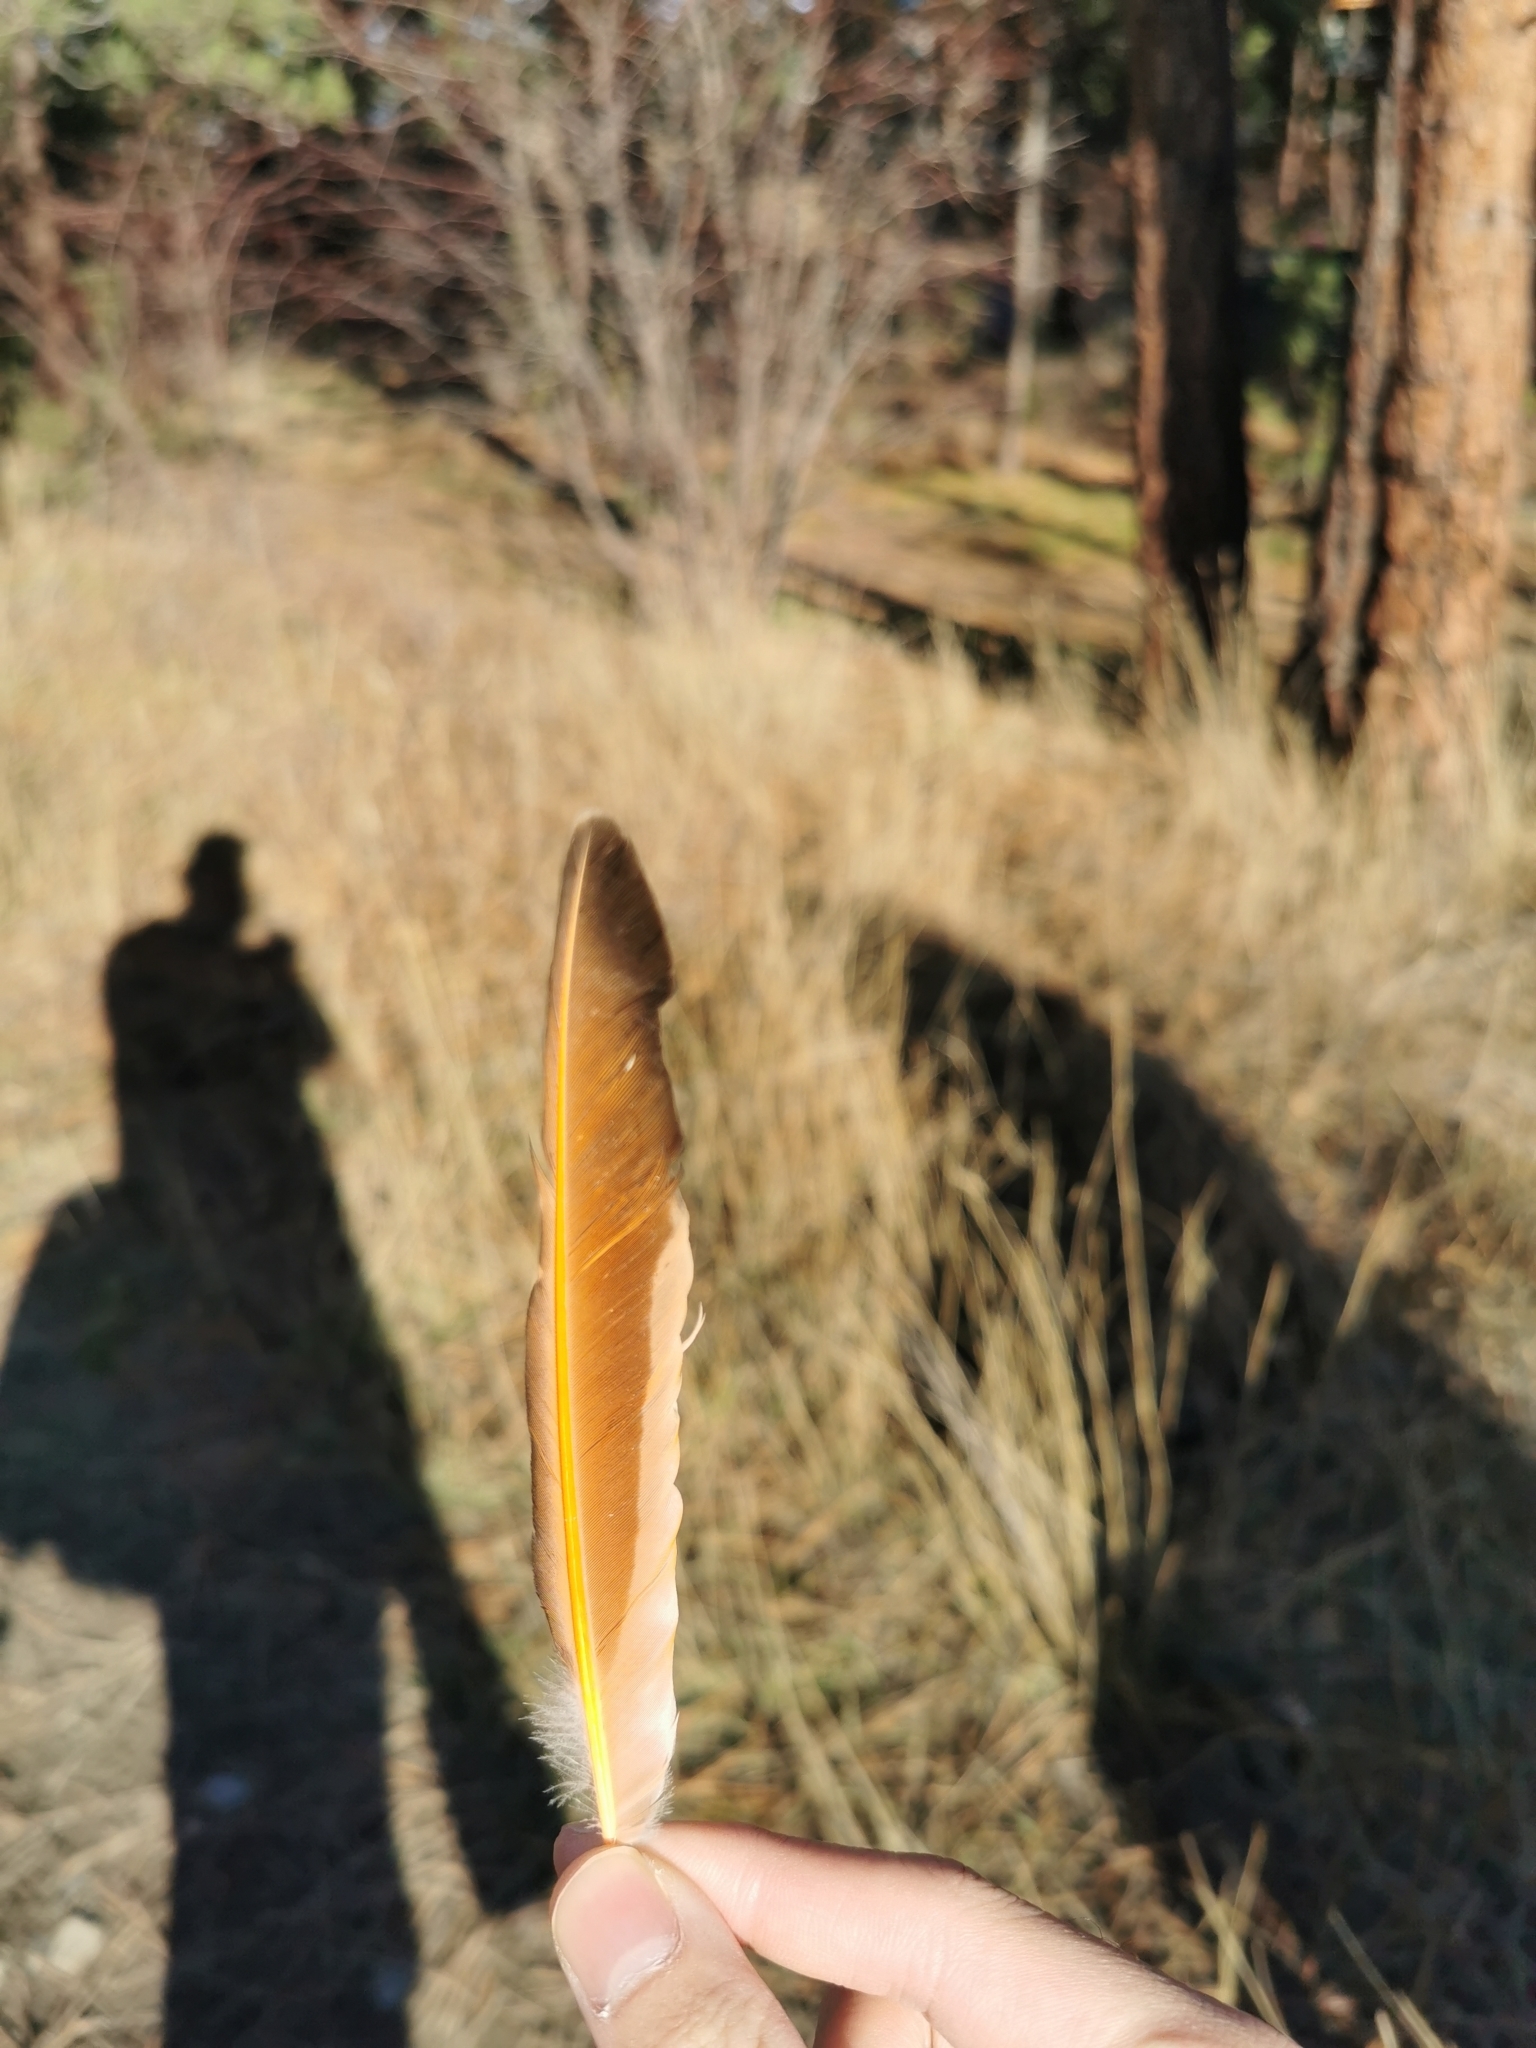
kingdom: Animalia
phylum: Chordata
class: Aves
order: Piciformes
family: Picidae
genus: Colaptes
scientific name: Colaptes auratus
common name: Northern flicker
